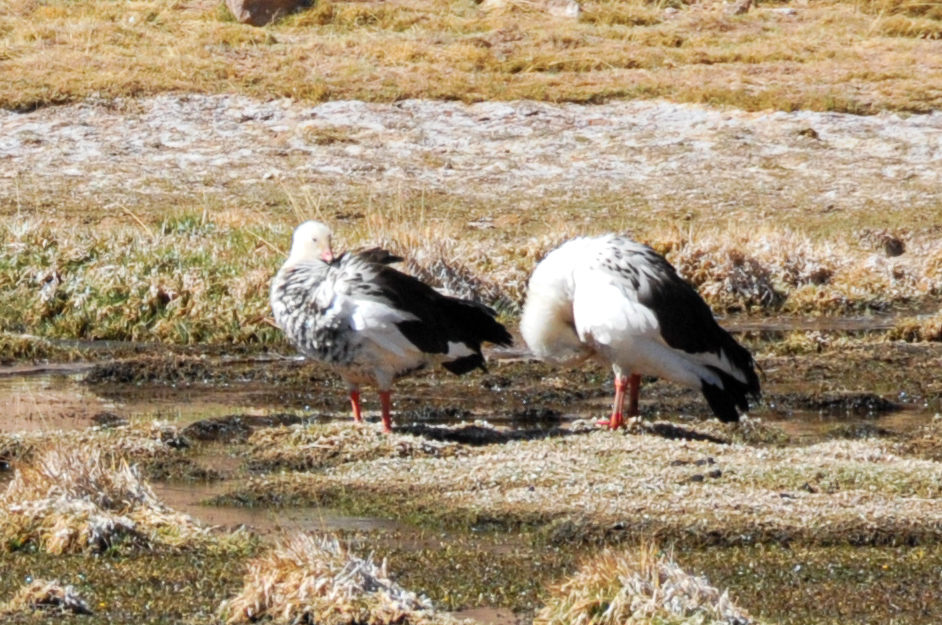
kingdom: Animalia
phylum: Chordata
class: Aves
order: Anseriformes
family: Anatidae
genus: Chloephaga
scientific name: Chloephaga melanoptera
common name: Andean goose
